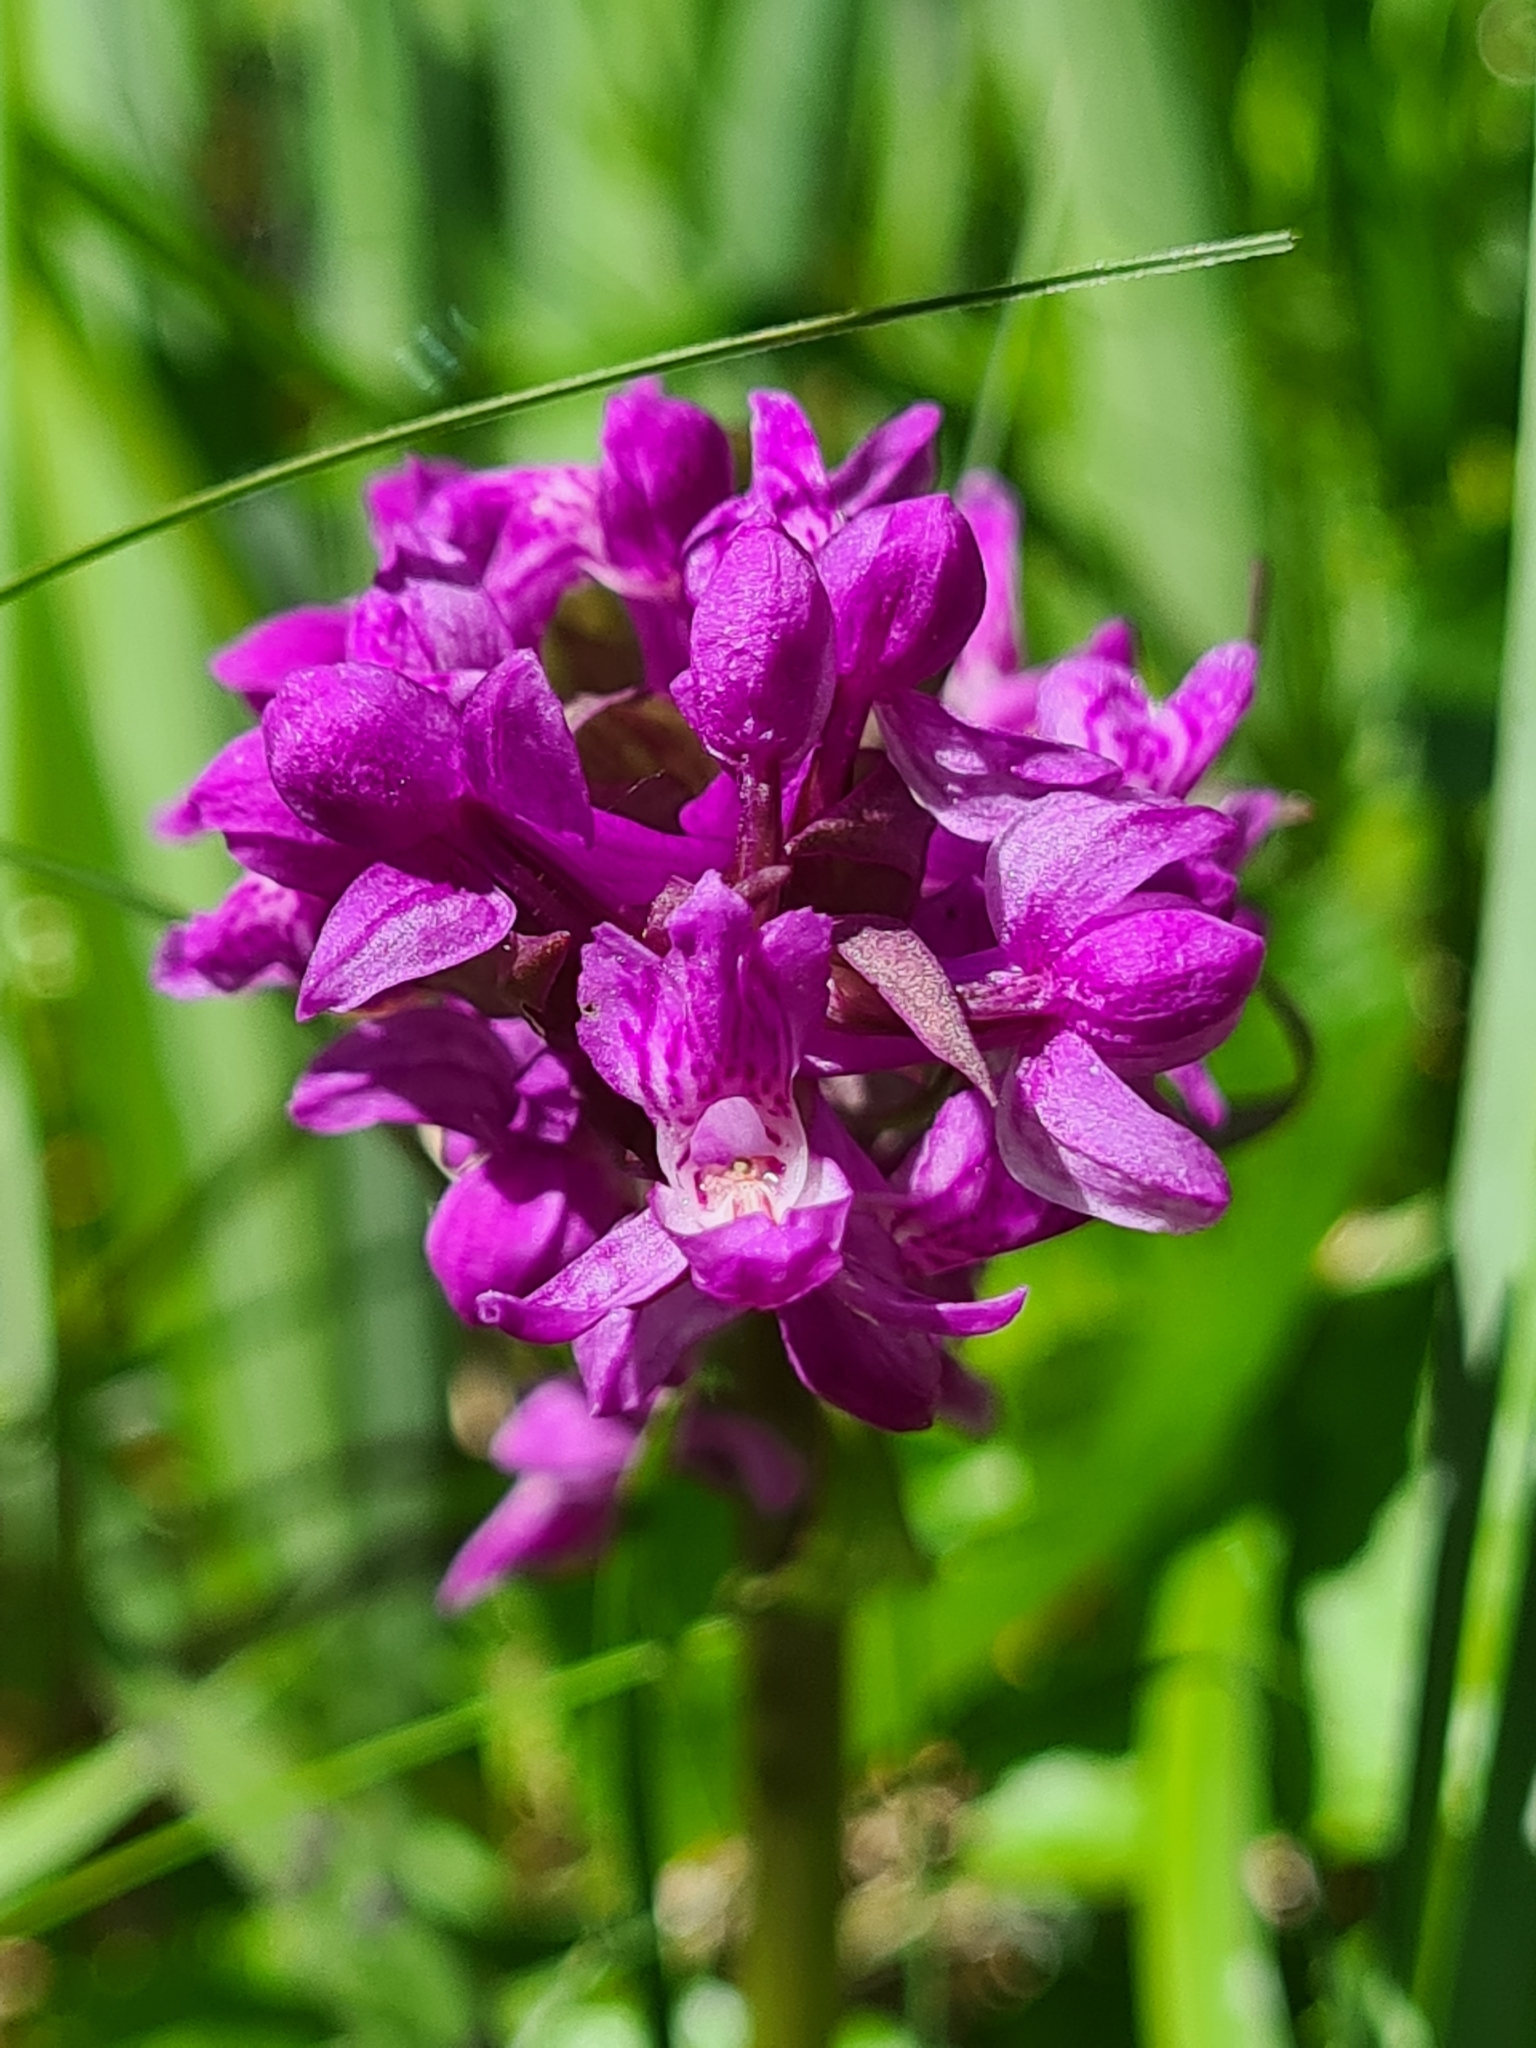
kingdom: Plantae
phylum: Tracheophyta
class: Liliopsida
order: Asparagales
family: Orchidaceae
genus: Dactylorhiza
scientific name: Dactylorhiza majalis
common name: Marsh orchid
